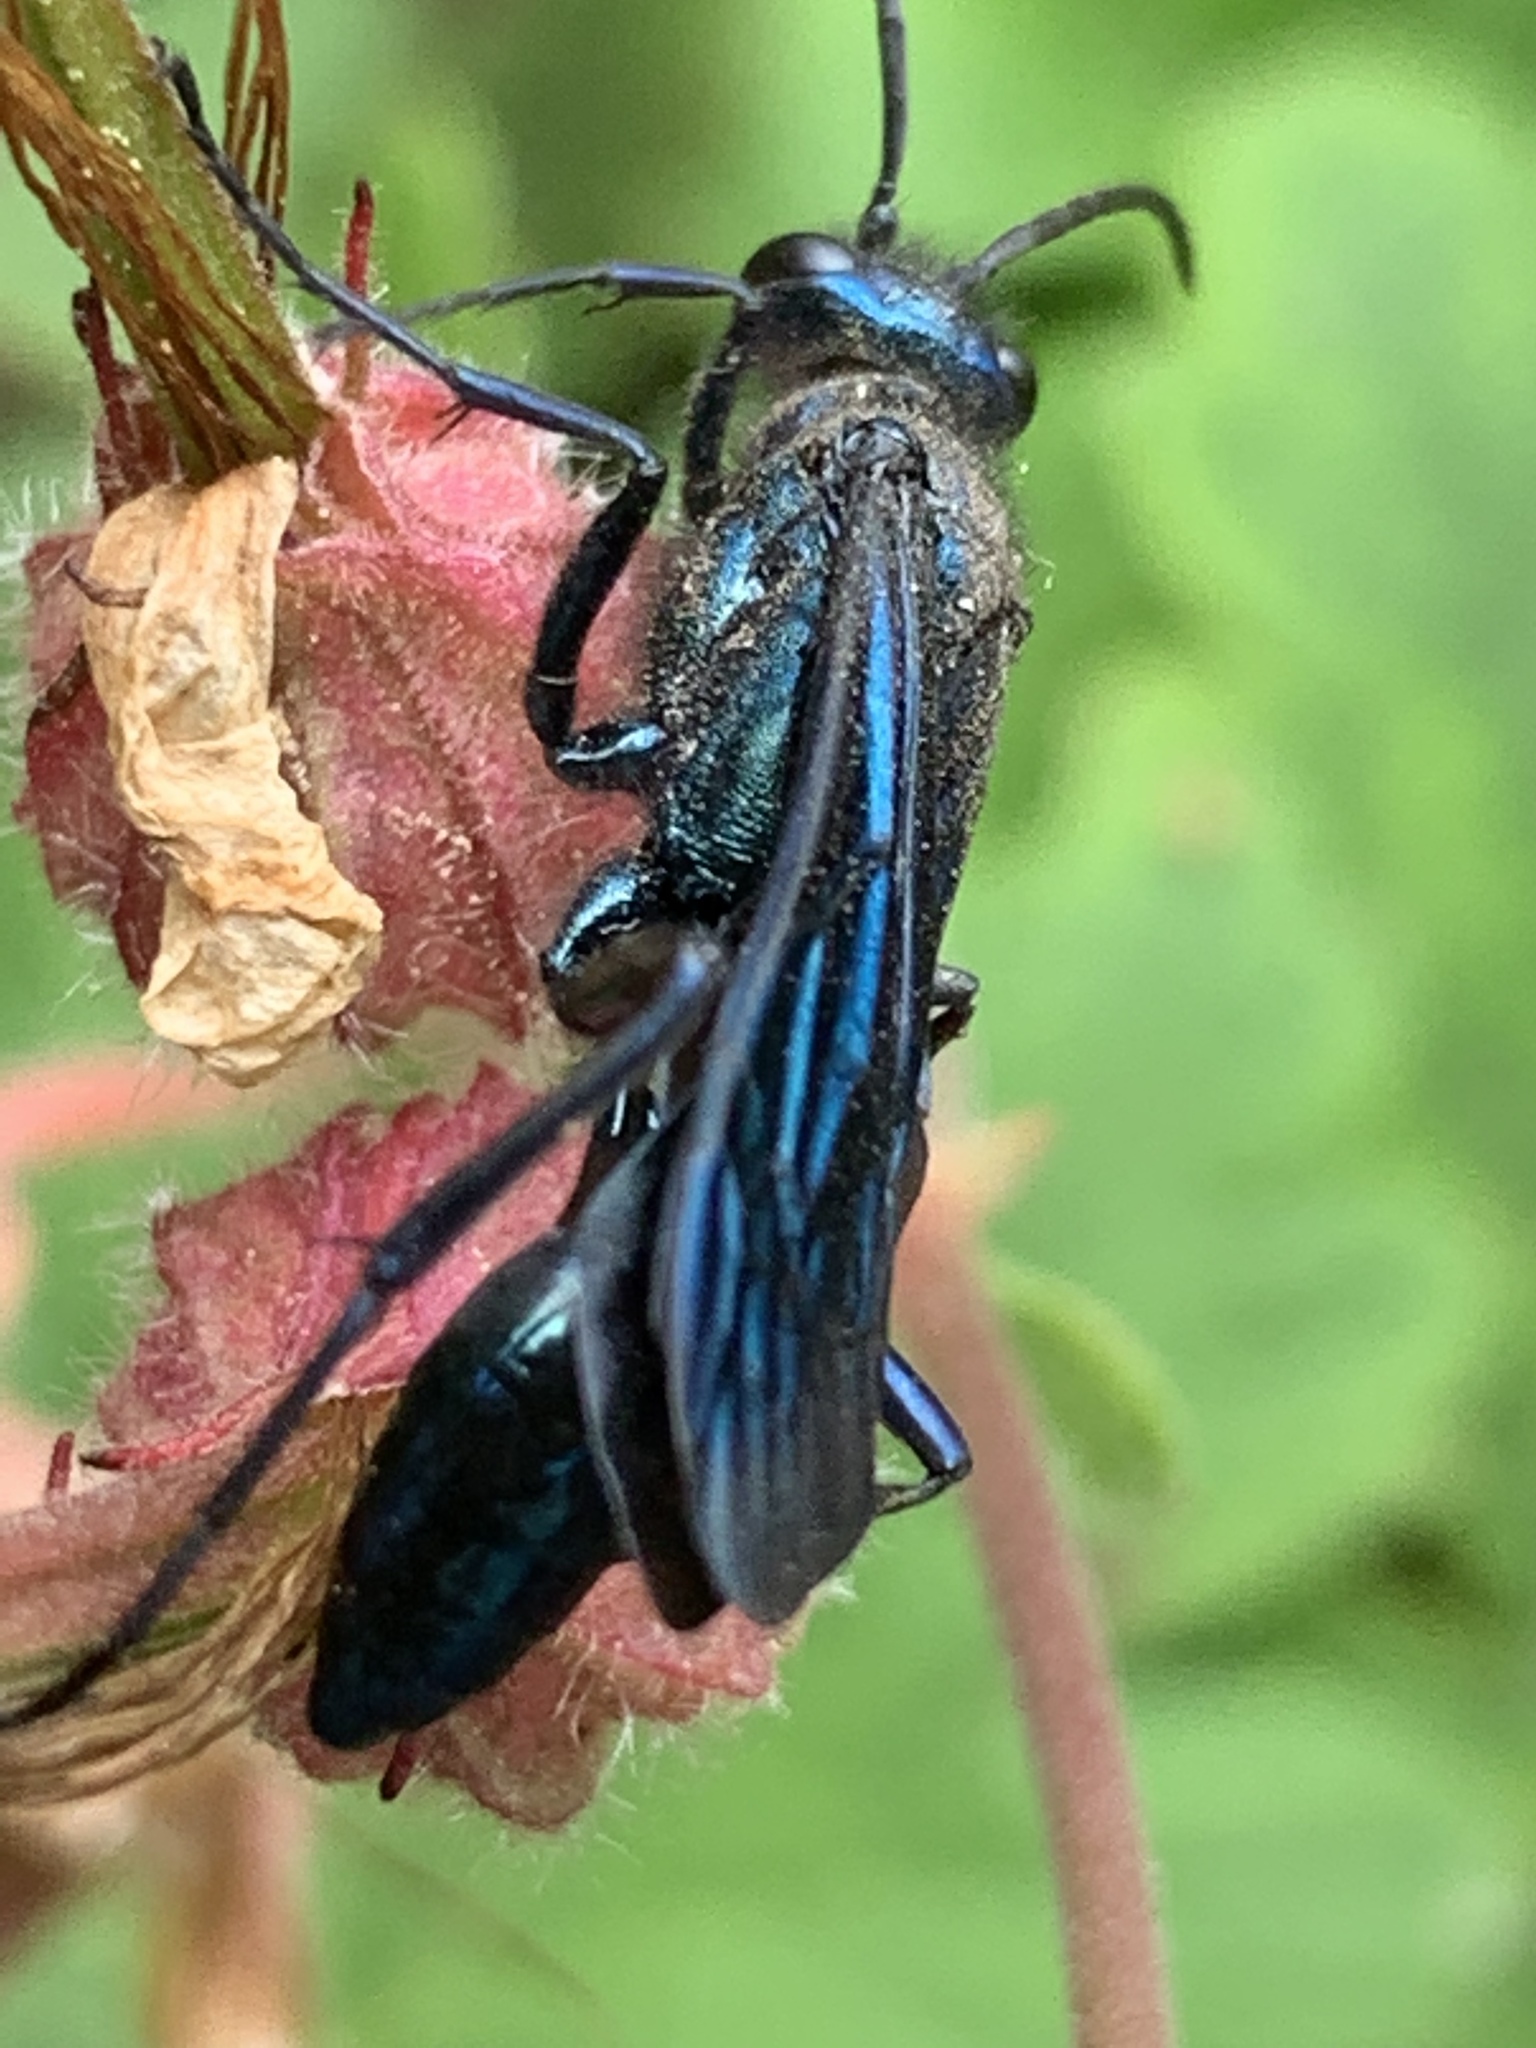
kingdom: Animalia
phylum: Arthropoda
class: Insecta
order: Hymenoptera
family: Sphecidae
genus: Chalybion
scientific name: Chalybion californicum
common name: Mud dauber
